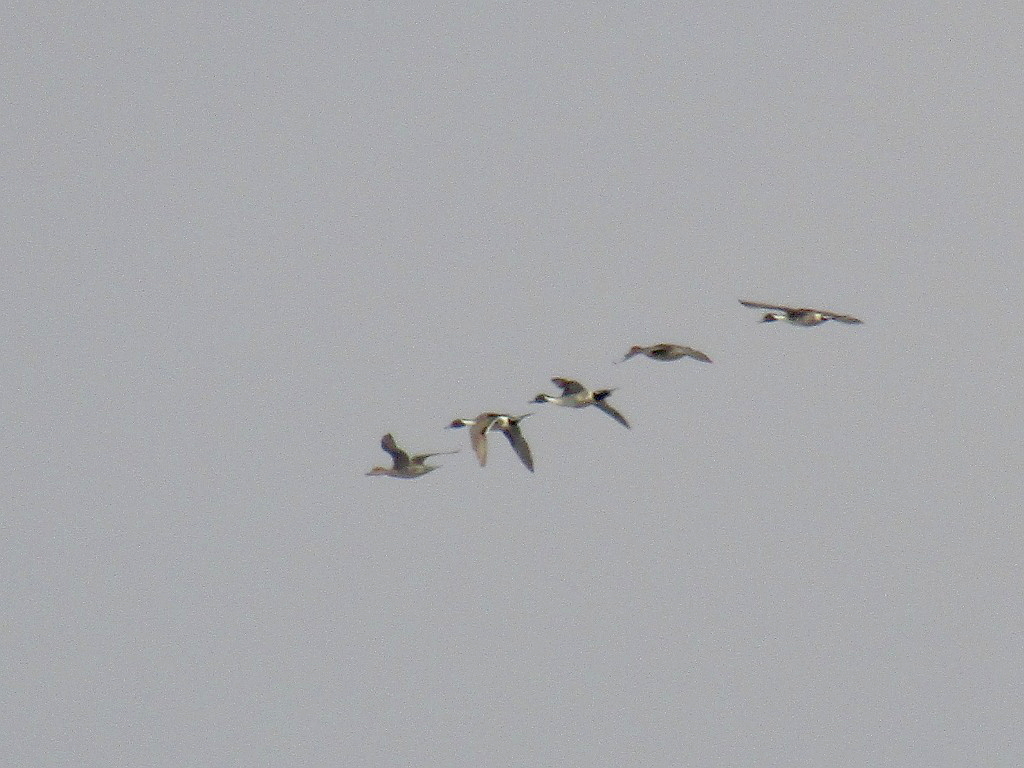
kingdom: Animalia
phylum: Chordata
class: Aves
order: Anseriformes
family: Anatidae
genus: Anas
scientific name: Anas acuta
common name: Northern pintail
